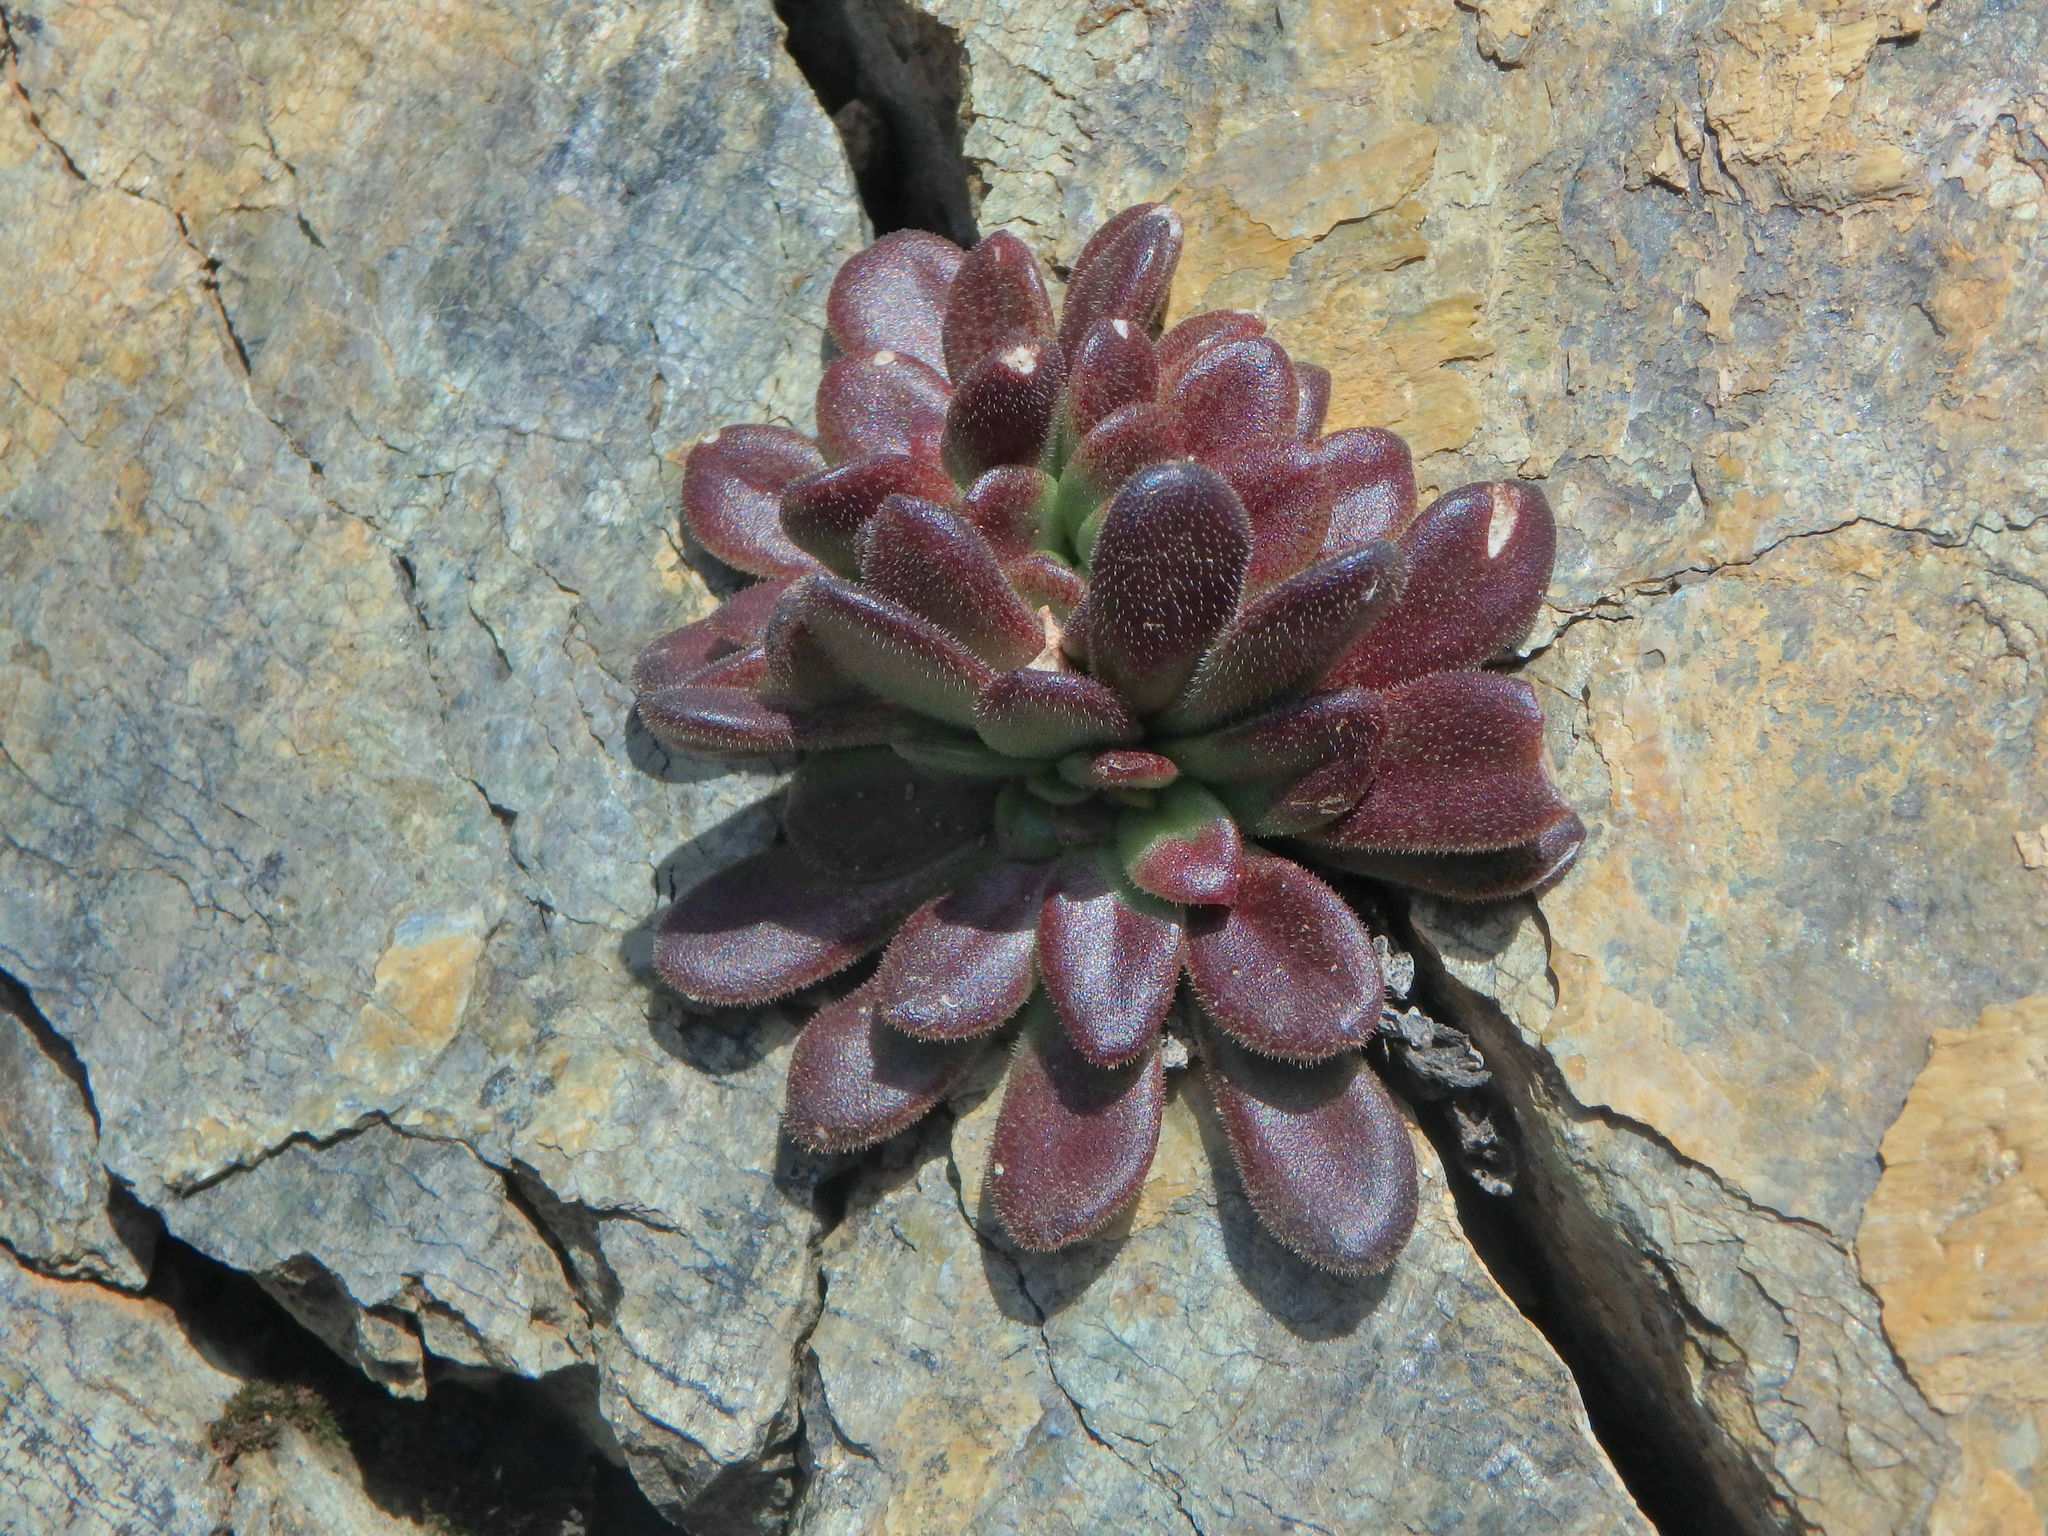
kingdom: Plantae
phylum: Tracheophyta
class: Magnoliopsida
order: Saxifragales
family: Crassulaceae
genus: Sedum
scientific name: Sedum microstachyum
